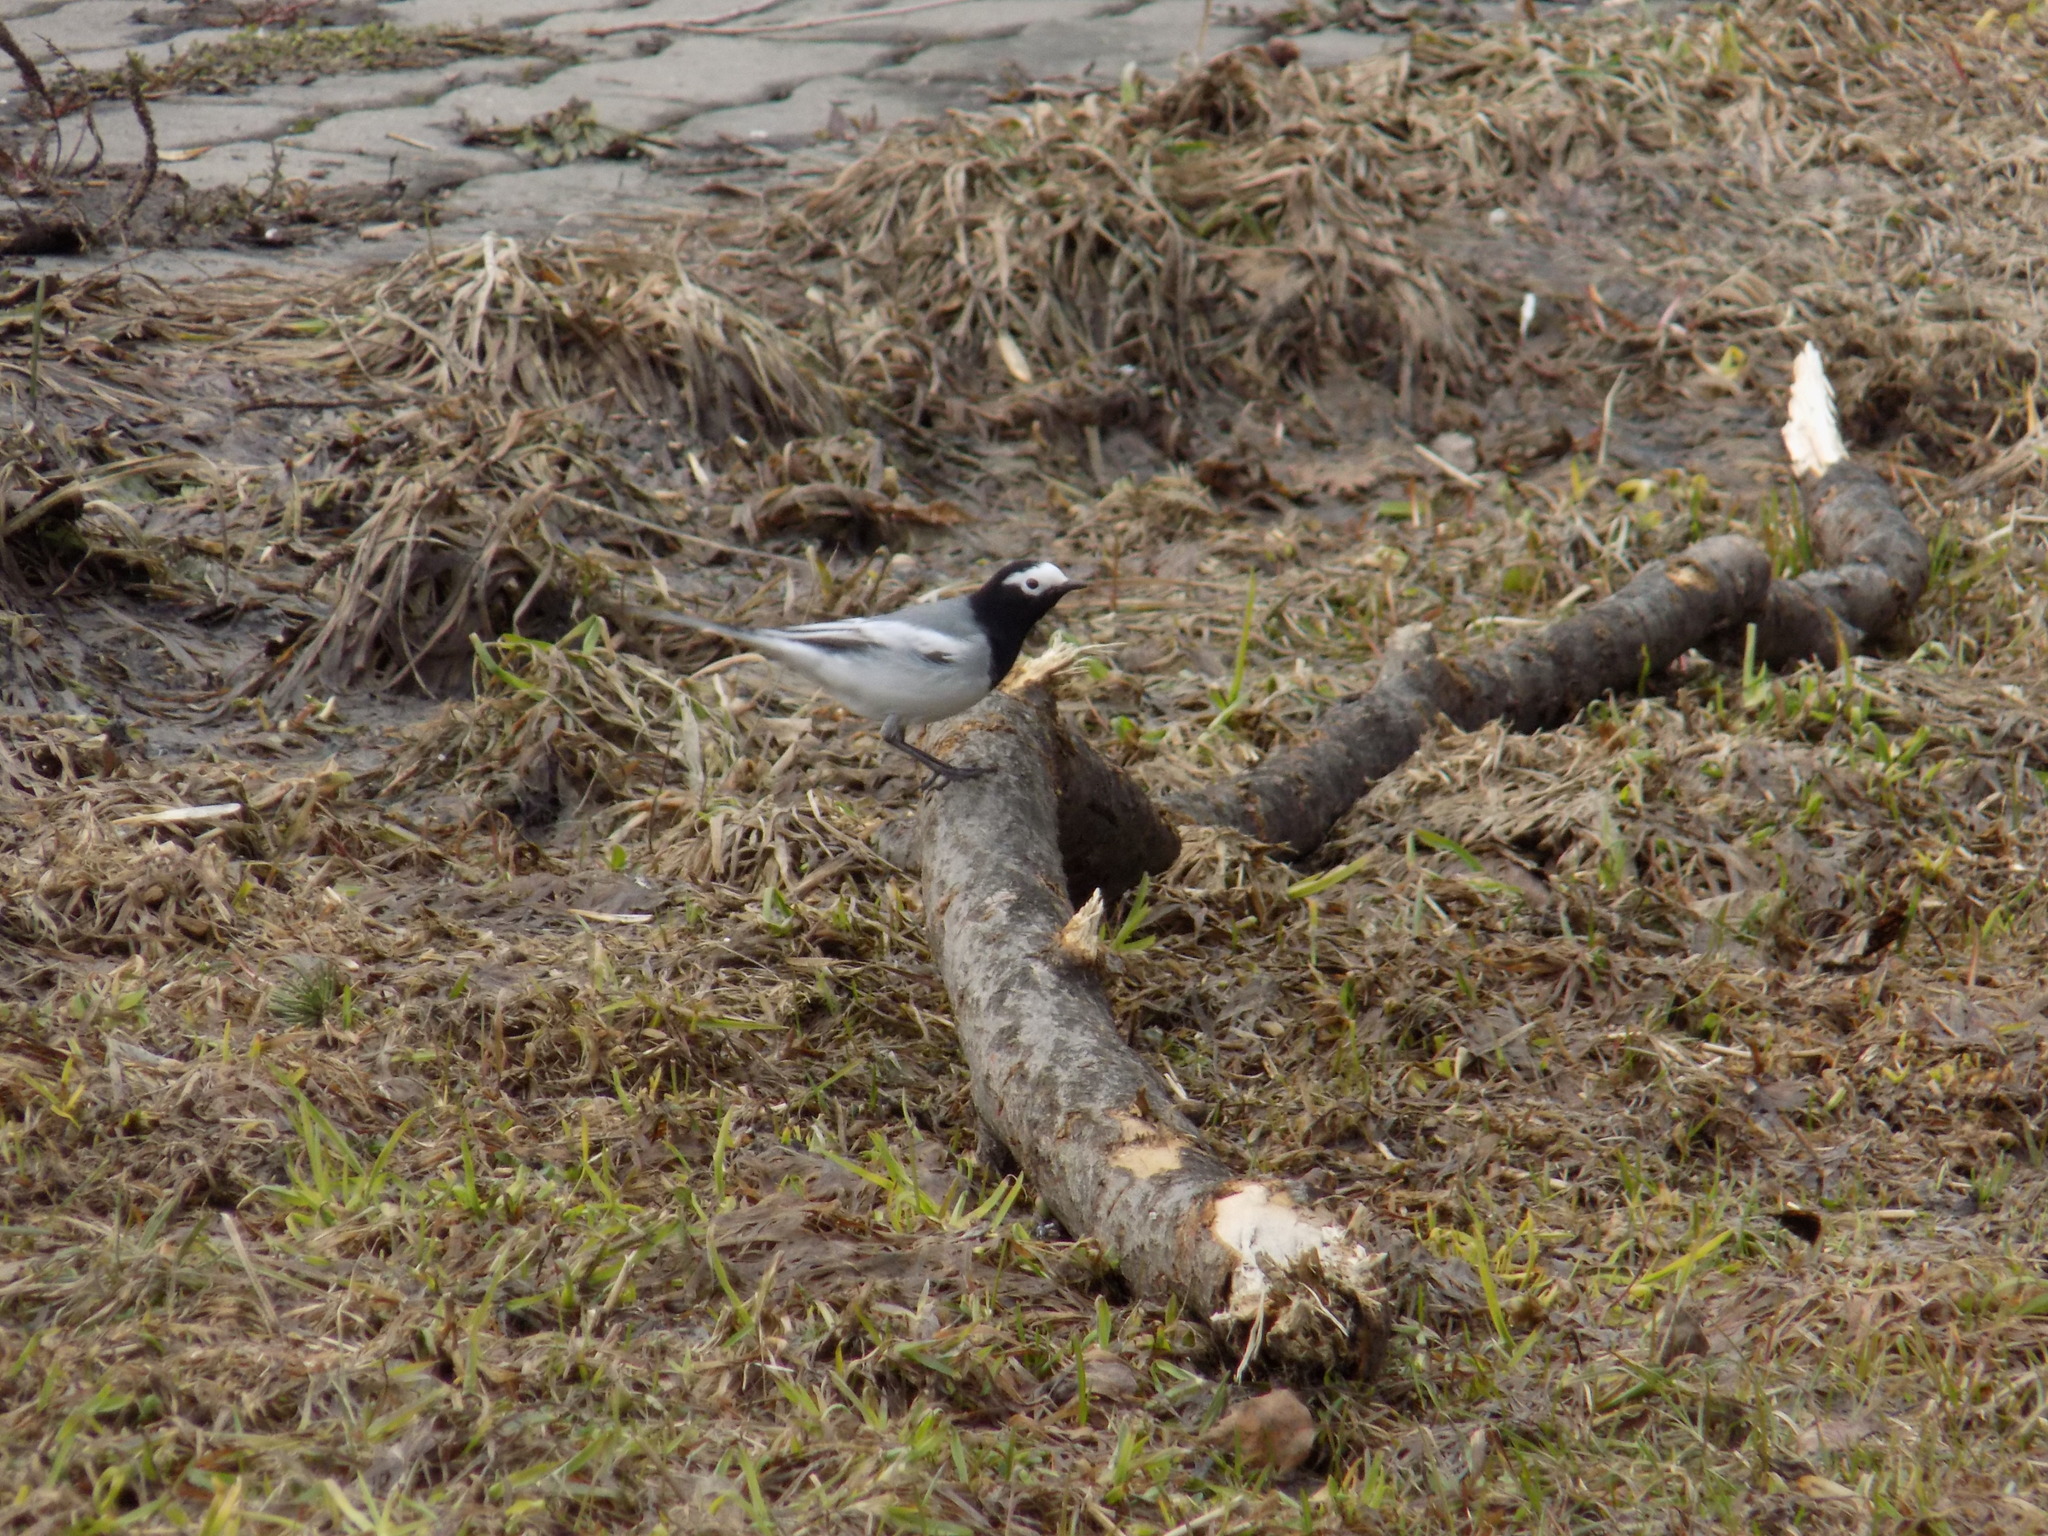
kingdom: Animalia
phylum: Chordata
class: Aves
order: Passeriformes
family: Motacillidae
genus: Motacilla
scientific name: Motacilla alba
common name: White wagtail
